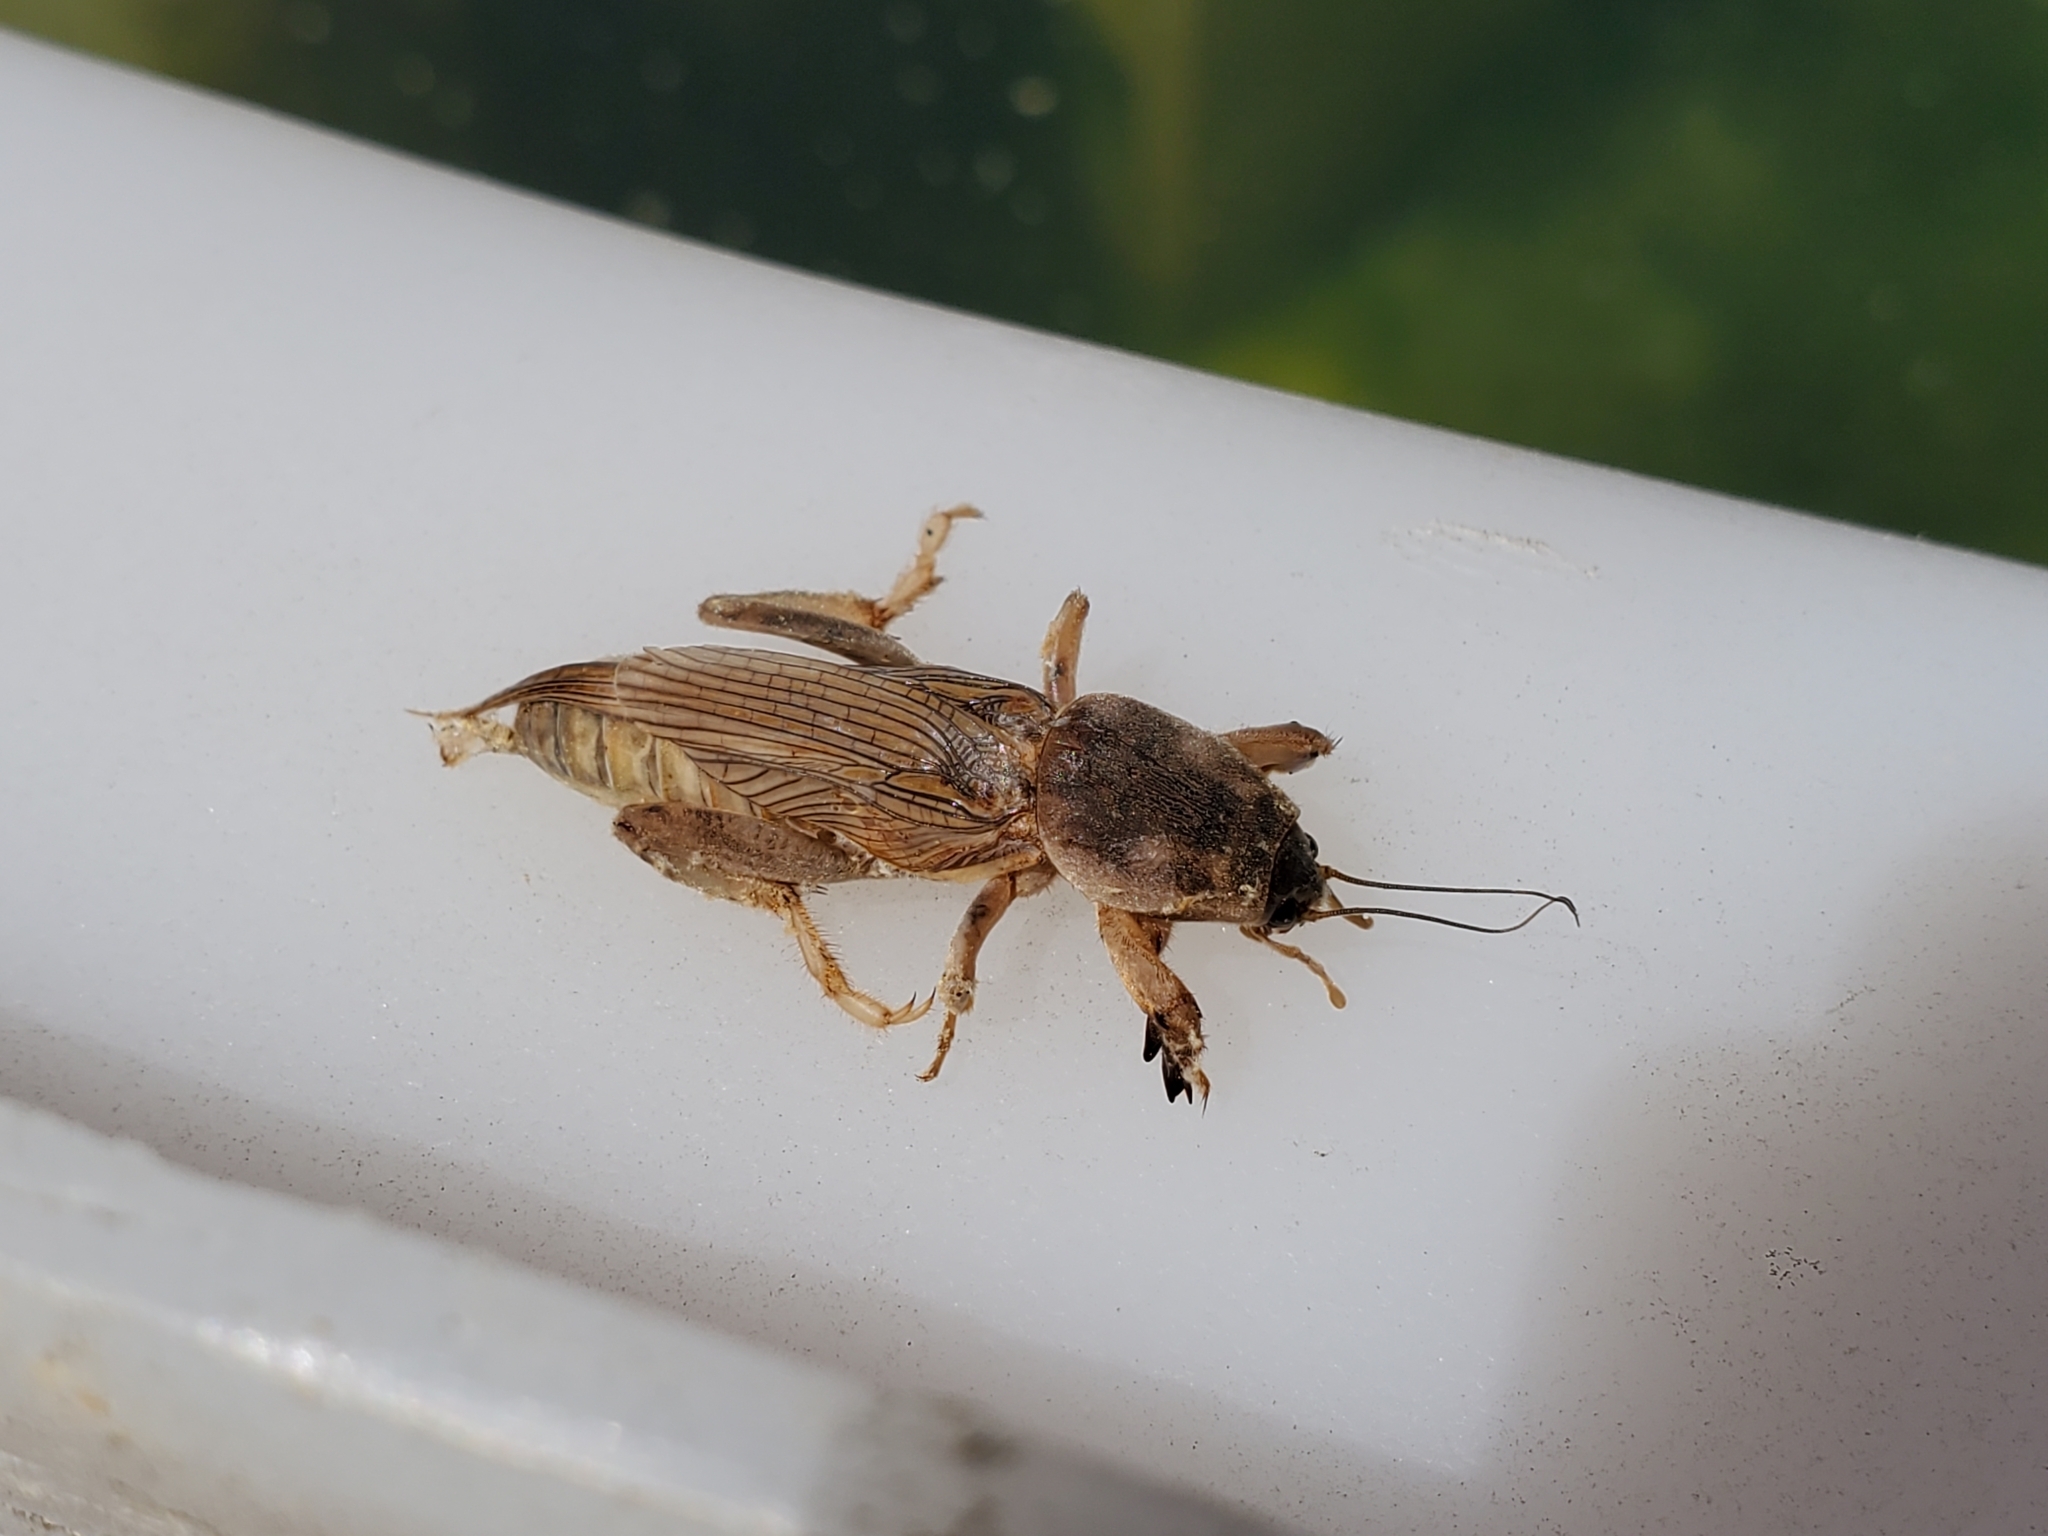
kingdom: Animalia
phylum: Arthropoda
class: Insecta
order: Orthoptera
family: Gryllotalpidae
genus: Neoscapteriscus
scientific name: Neoscapteriscus vicinus
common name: Tawny mole cricket
